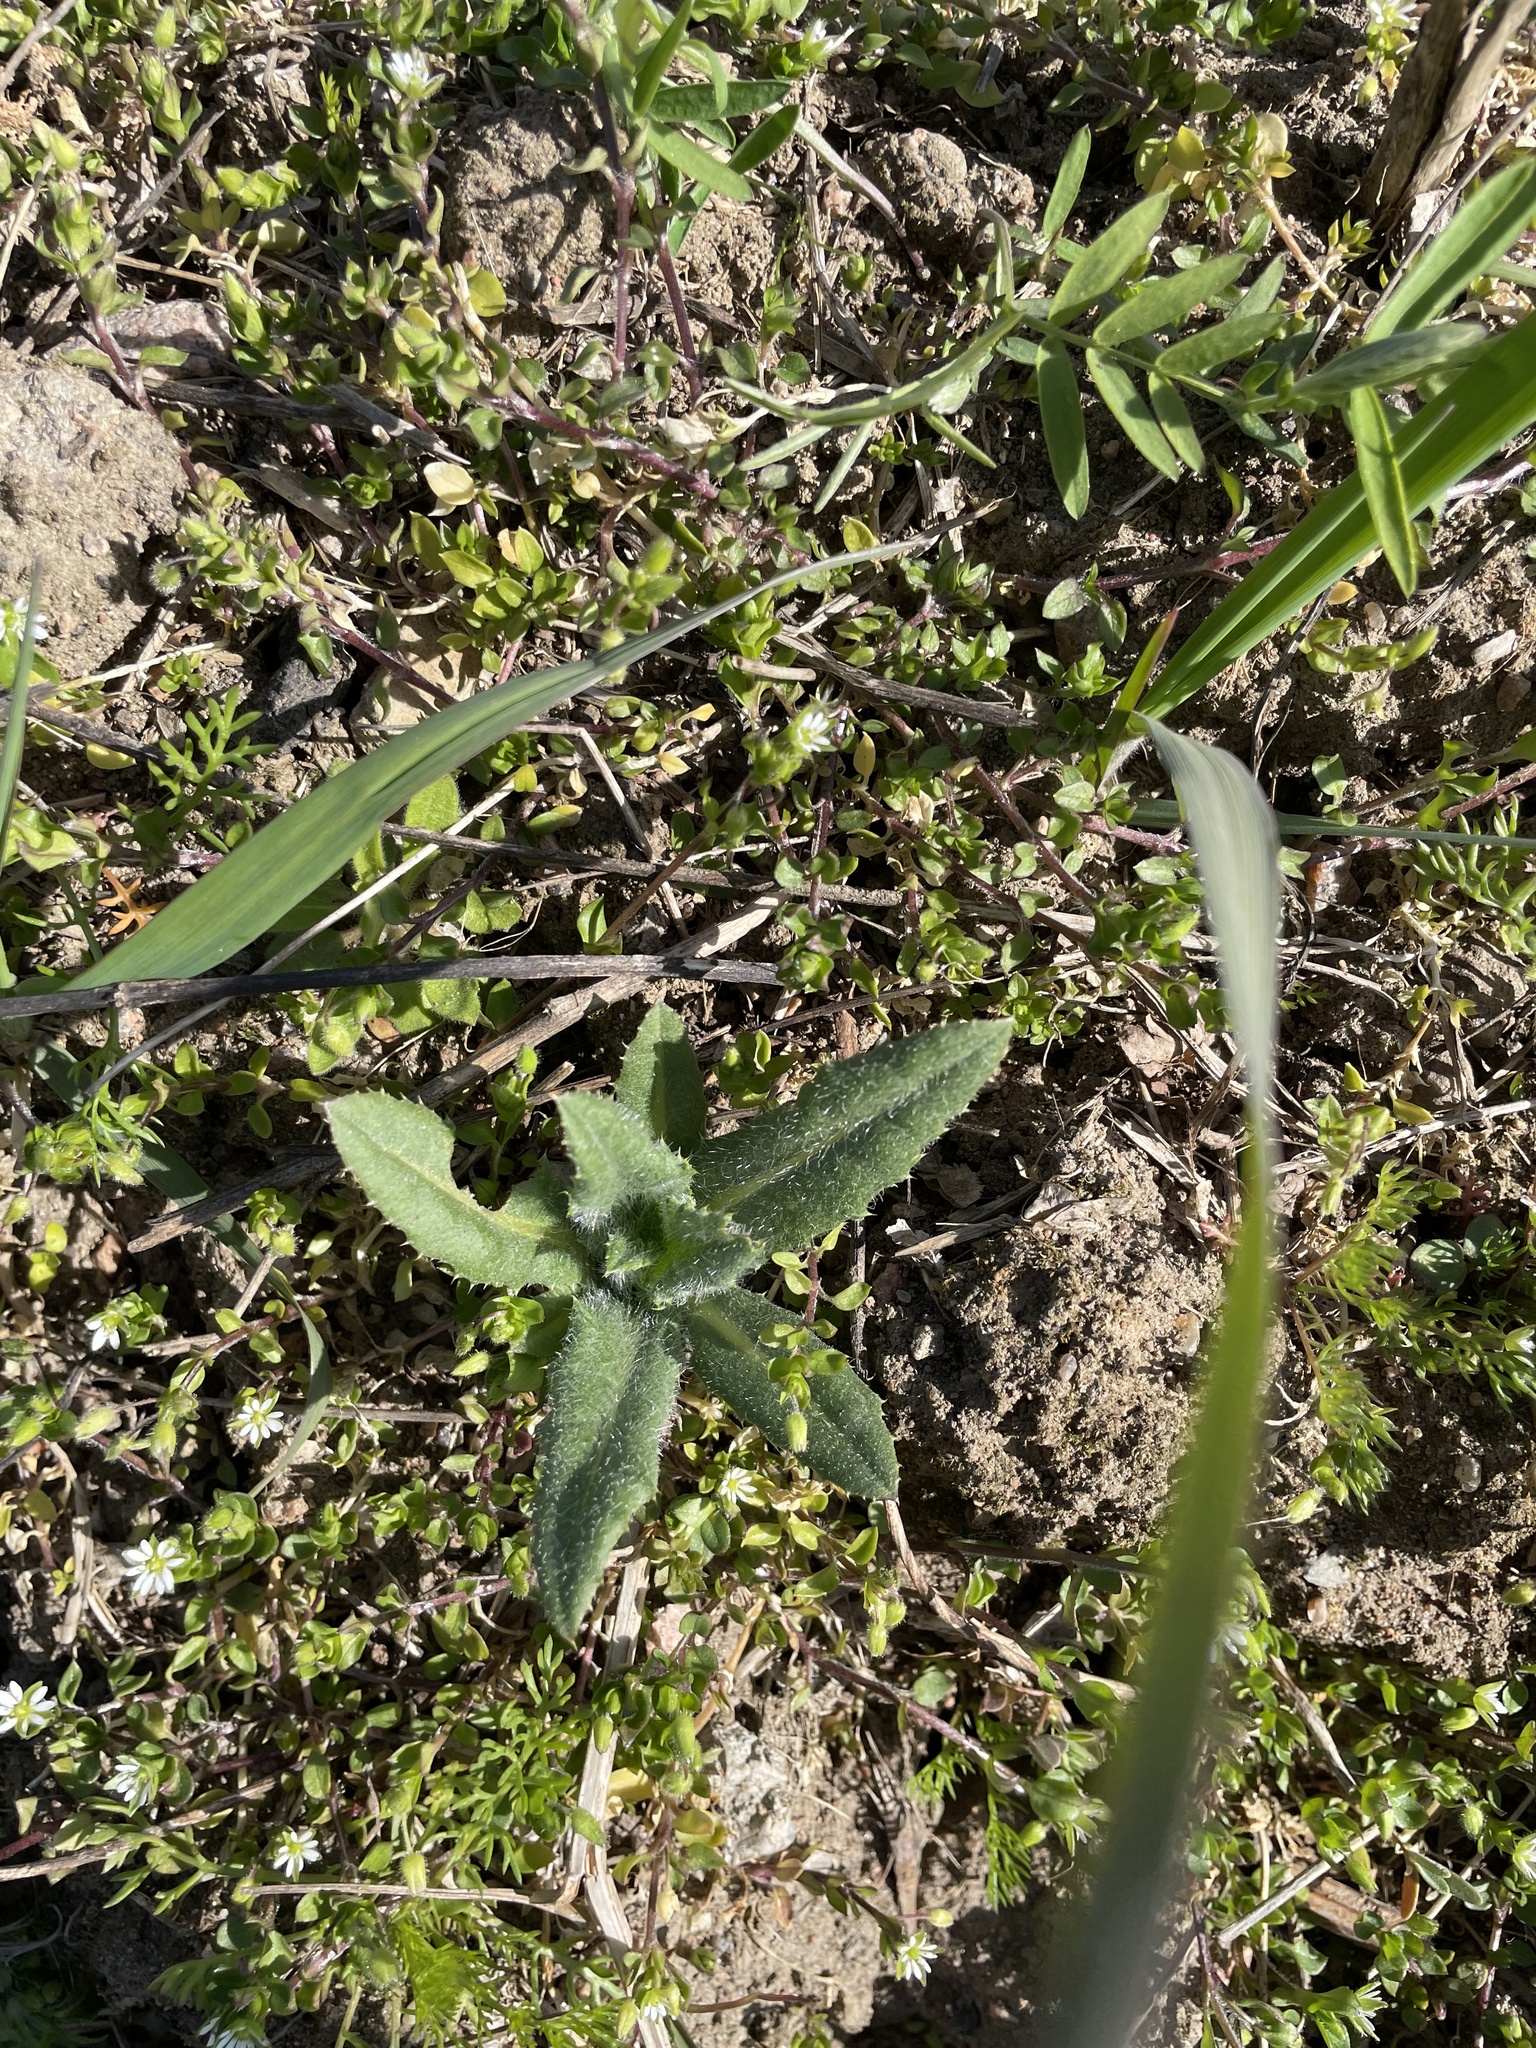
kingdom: Plantae
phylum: Tracheophyta
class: Magnoliopsida
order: Asterales
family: Asteraceae
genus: Cirsium
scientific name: Cirsium arvense
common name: Creeping thistle
